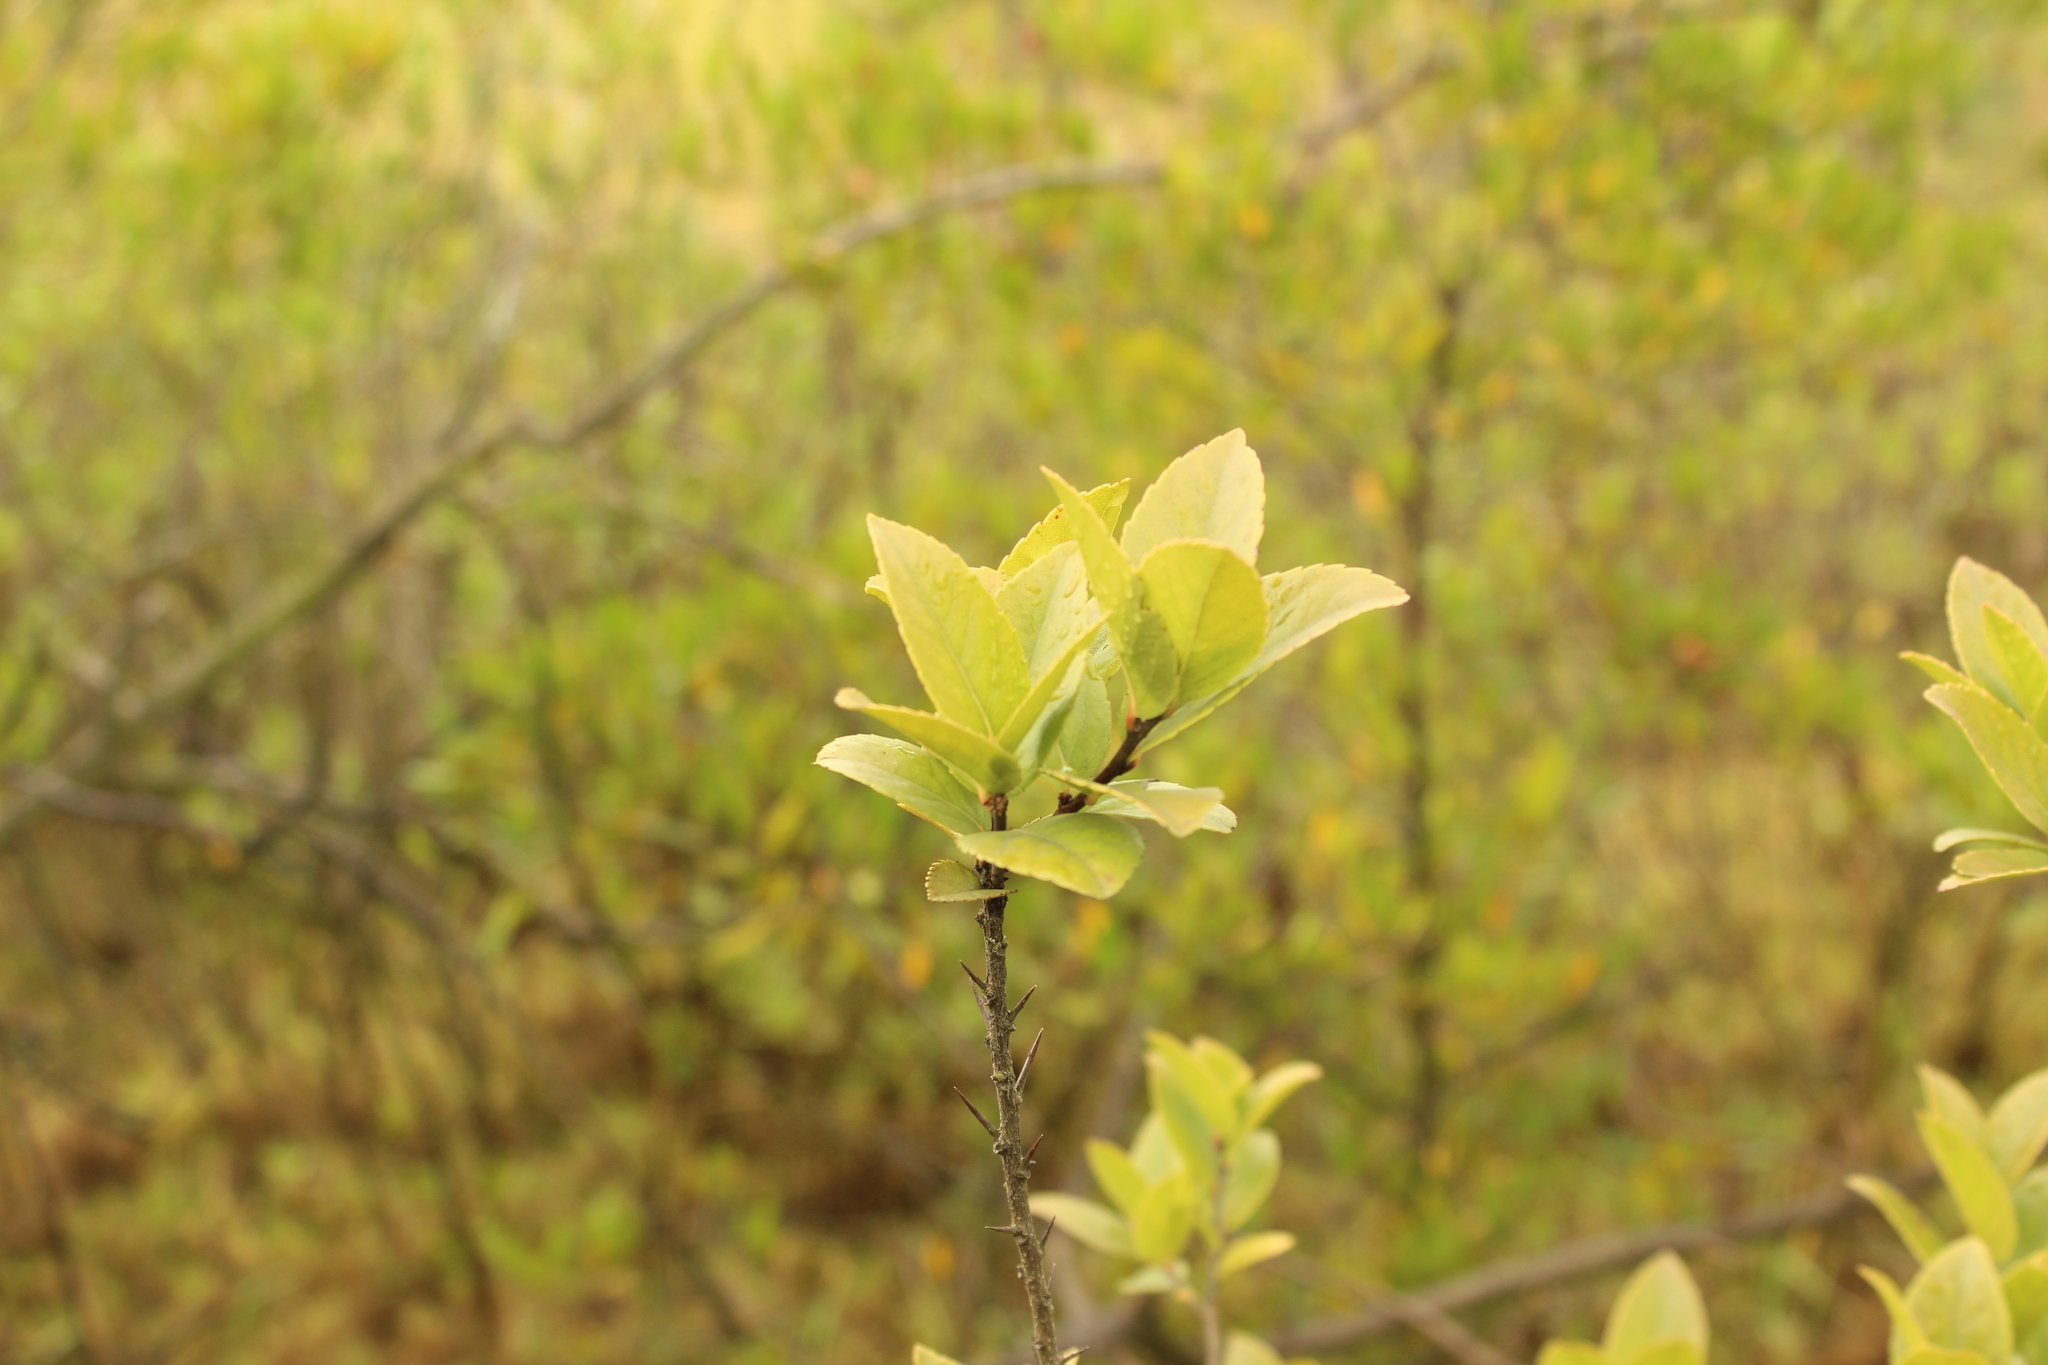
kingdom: Plantae
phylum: Tracheophyta
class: Magnoliopsida
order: Malpighiales
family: Salicaceae
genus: Xylosma
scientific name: Xylosma spiculifera
